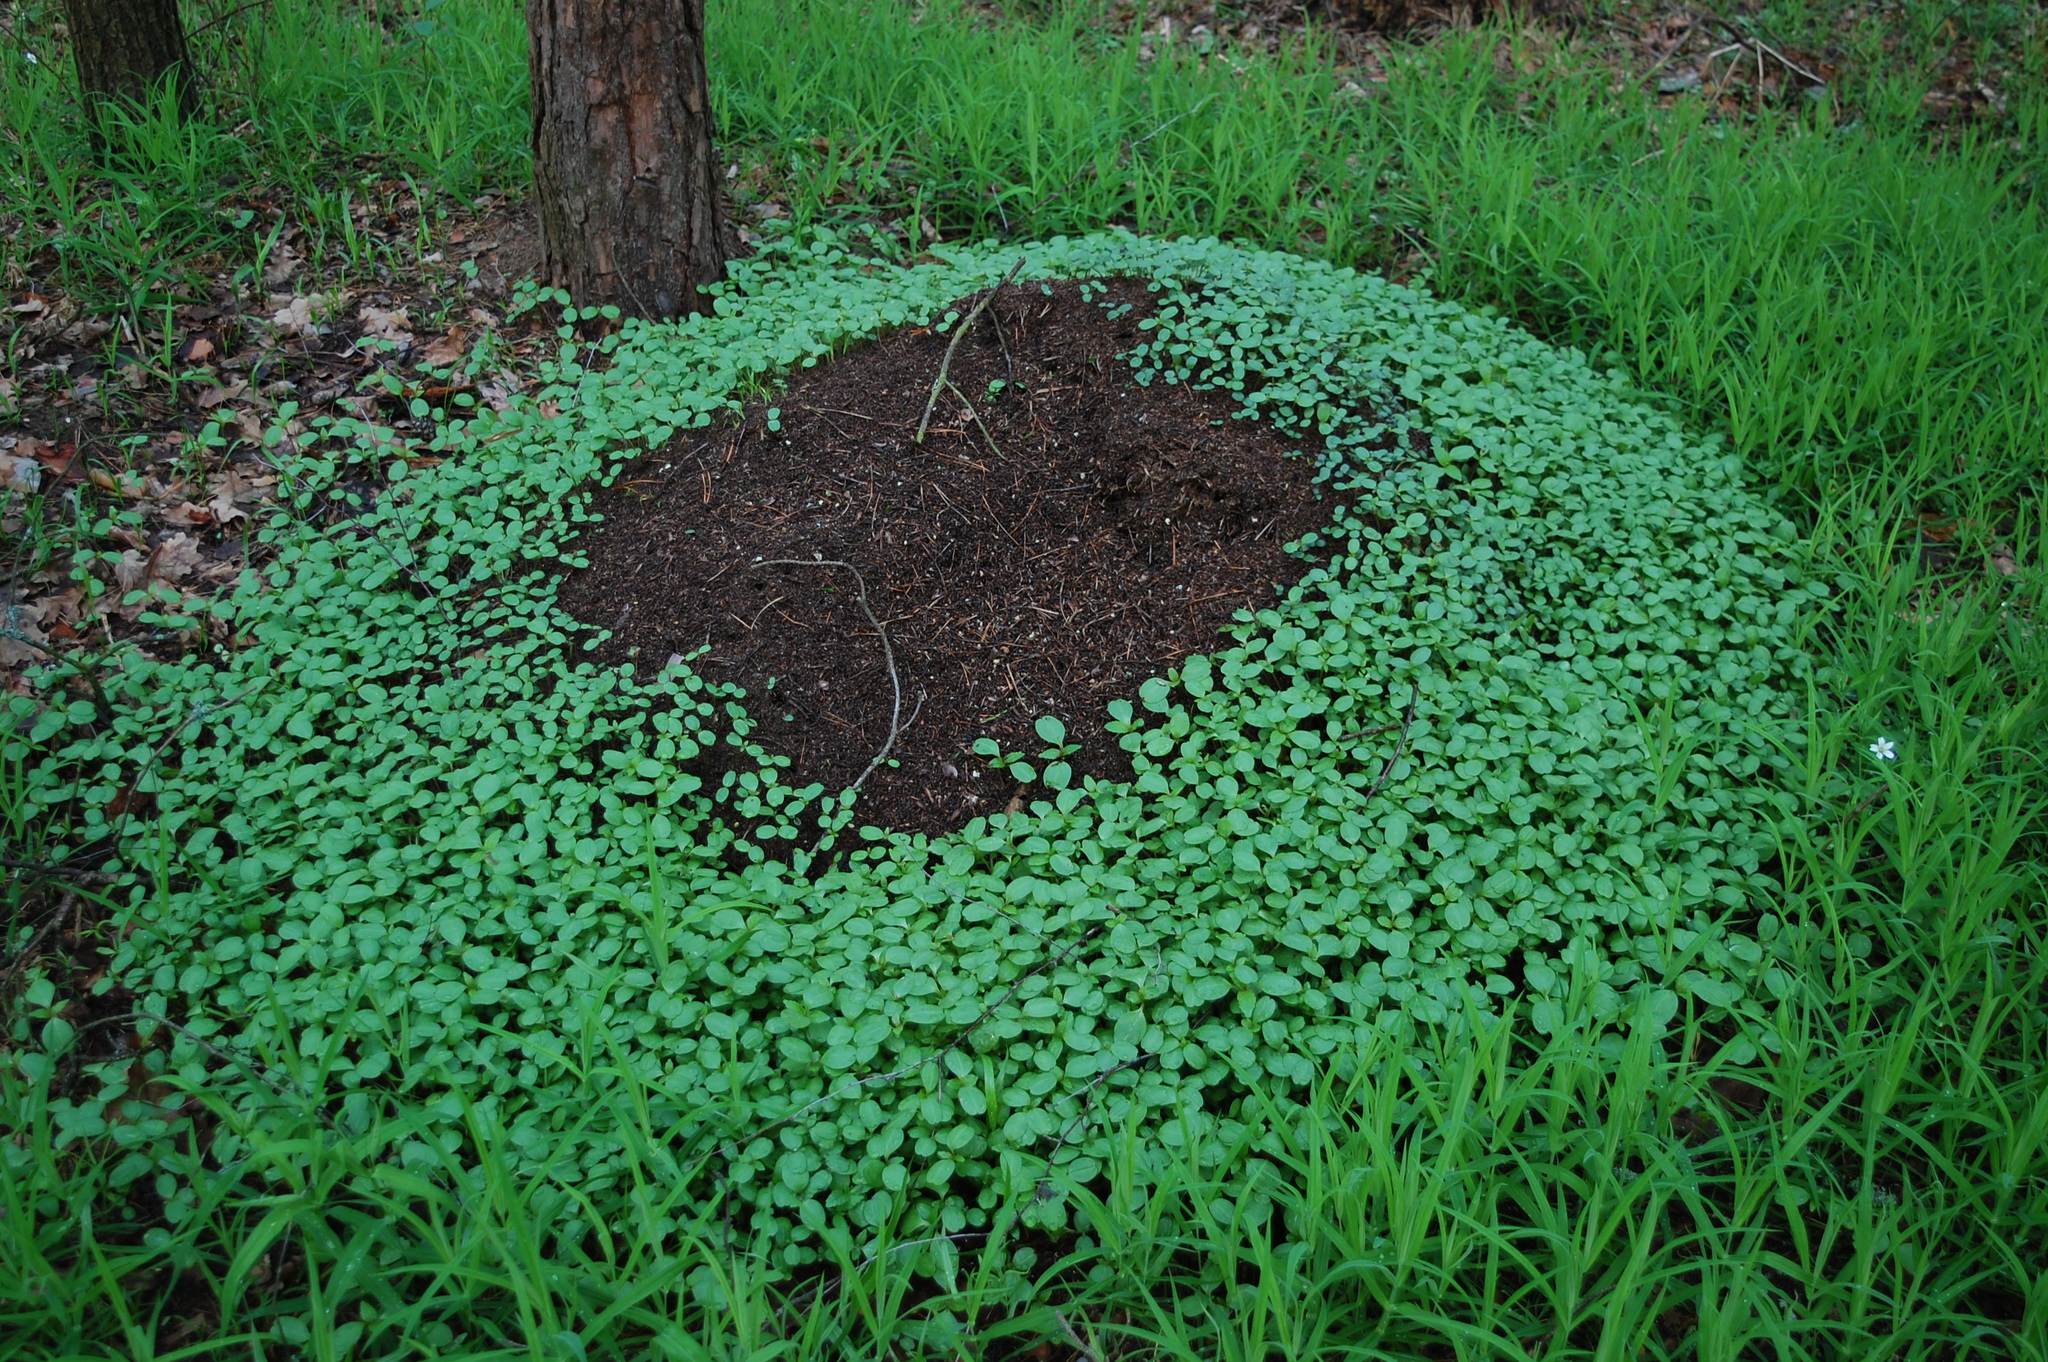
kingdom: Plantae
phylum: Tracheophyta
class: Magnoliopsida
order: Ericales
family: Balsaminaceae
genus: Impatiens
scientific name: Impatiens parviflora
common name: Small balsam
